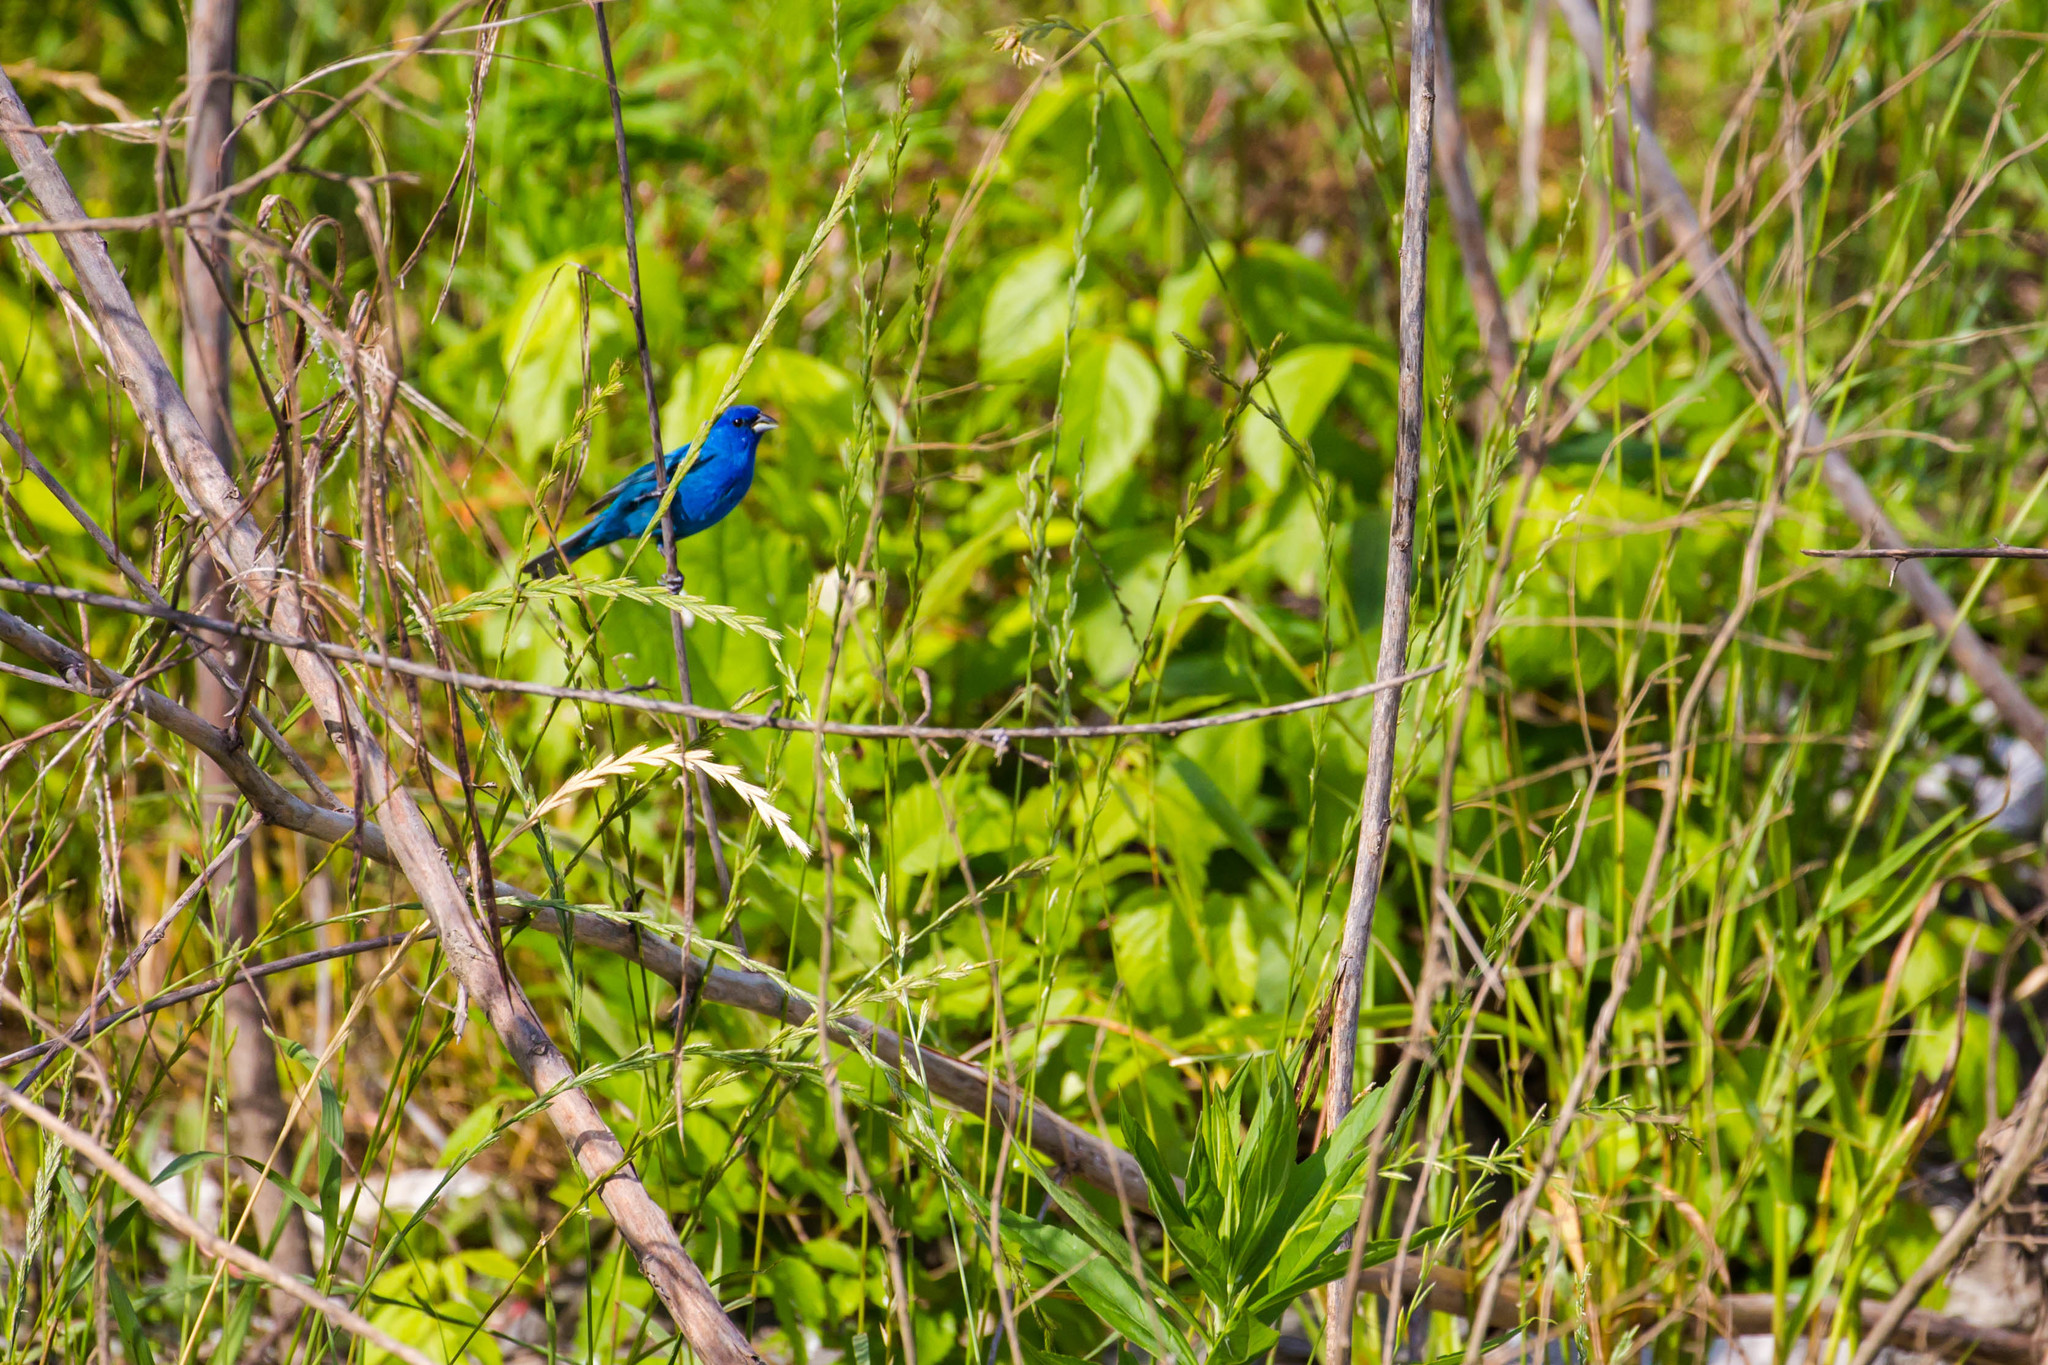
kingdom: Animalia
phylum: Chordata
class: Aves
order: Passeriformes
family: Cardinalidae
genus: Passerina
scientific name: Passerina cyanea
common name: Indigo bunting
